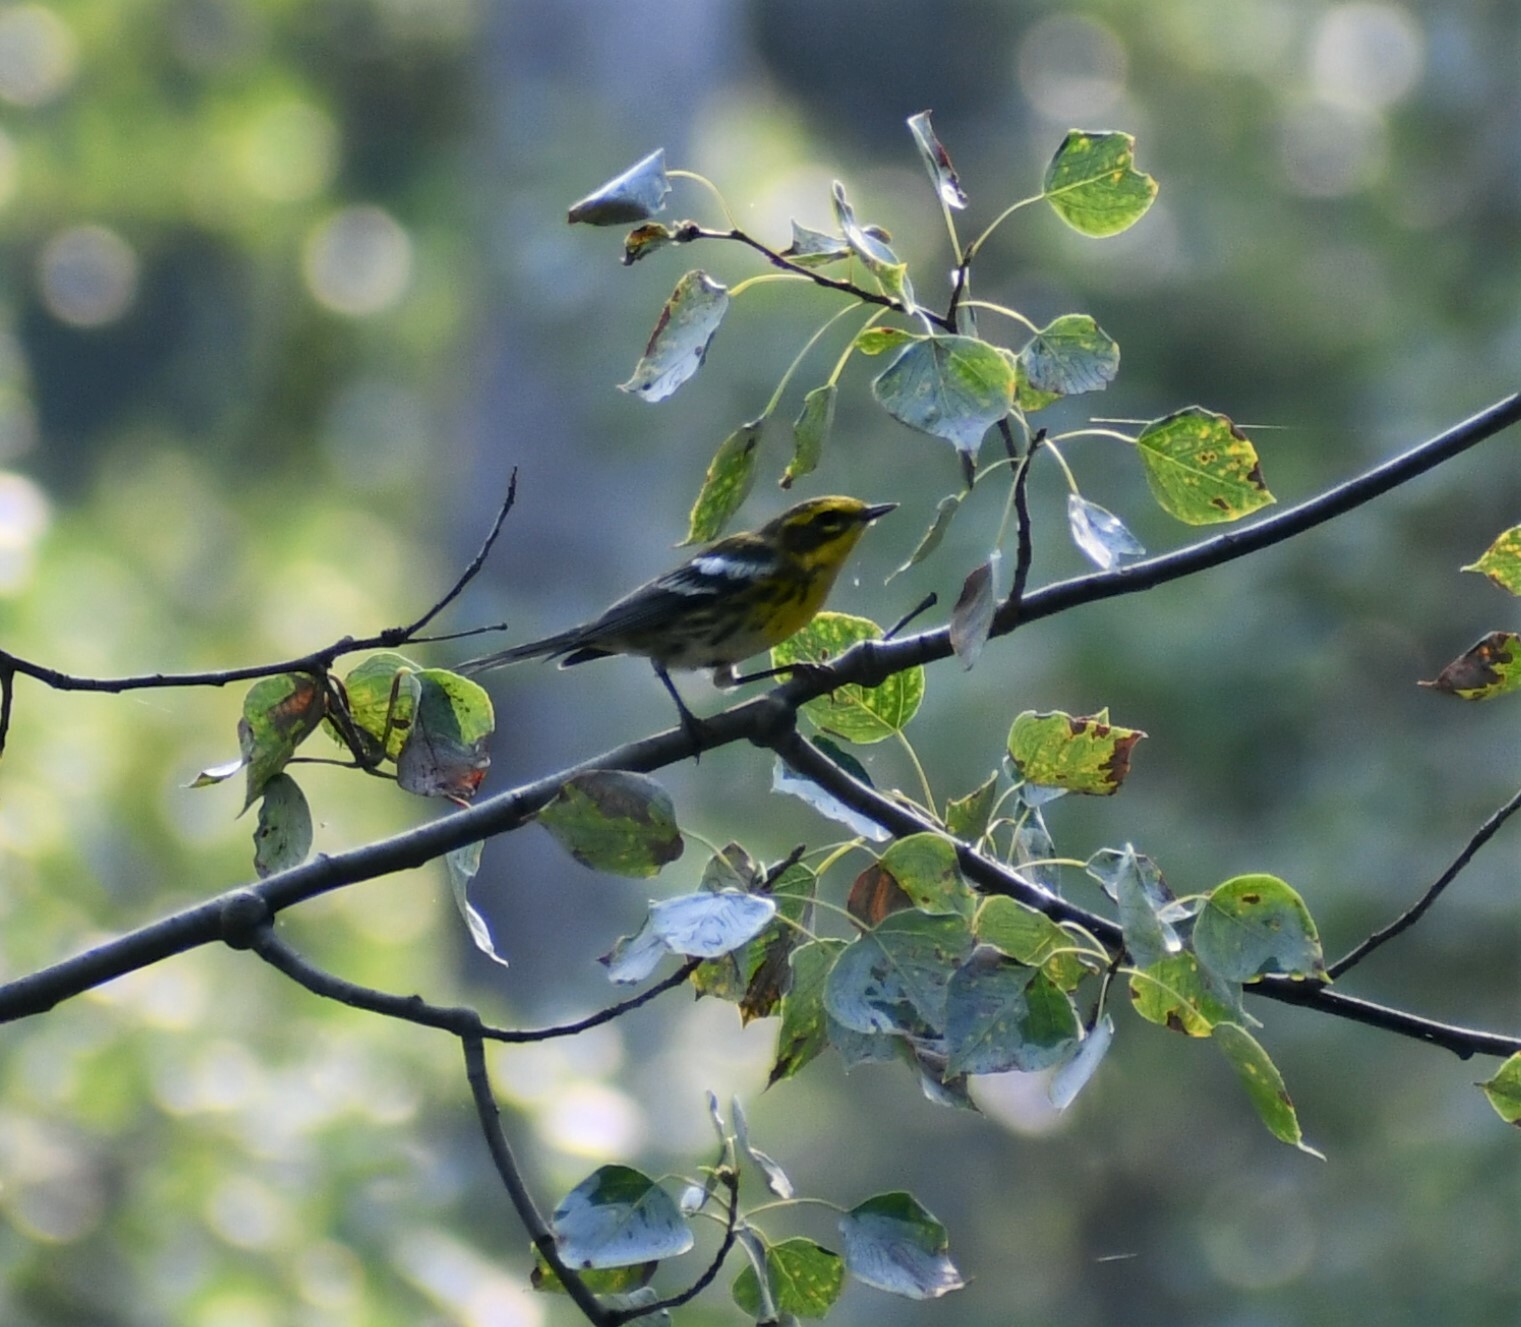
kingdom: Animalia
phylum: Chordata
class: Aves
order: Passeriformes
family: Parulidae
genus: Setophaga
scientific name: Setophaga townsendi
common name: Townsend's warbler
